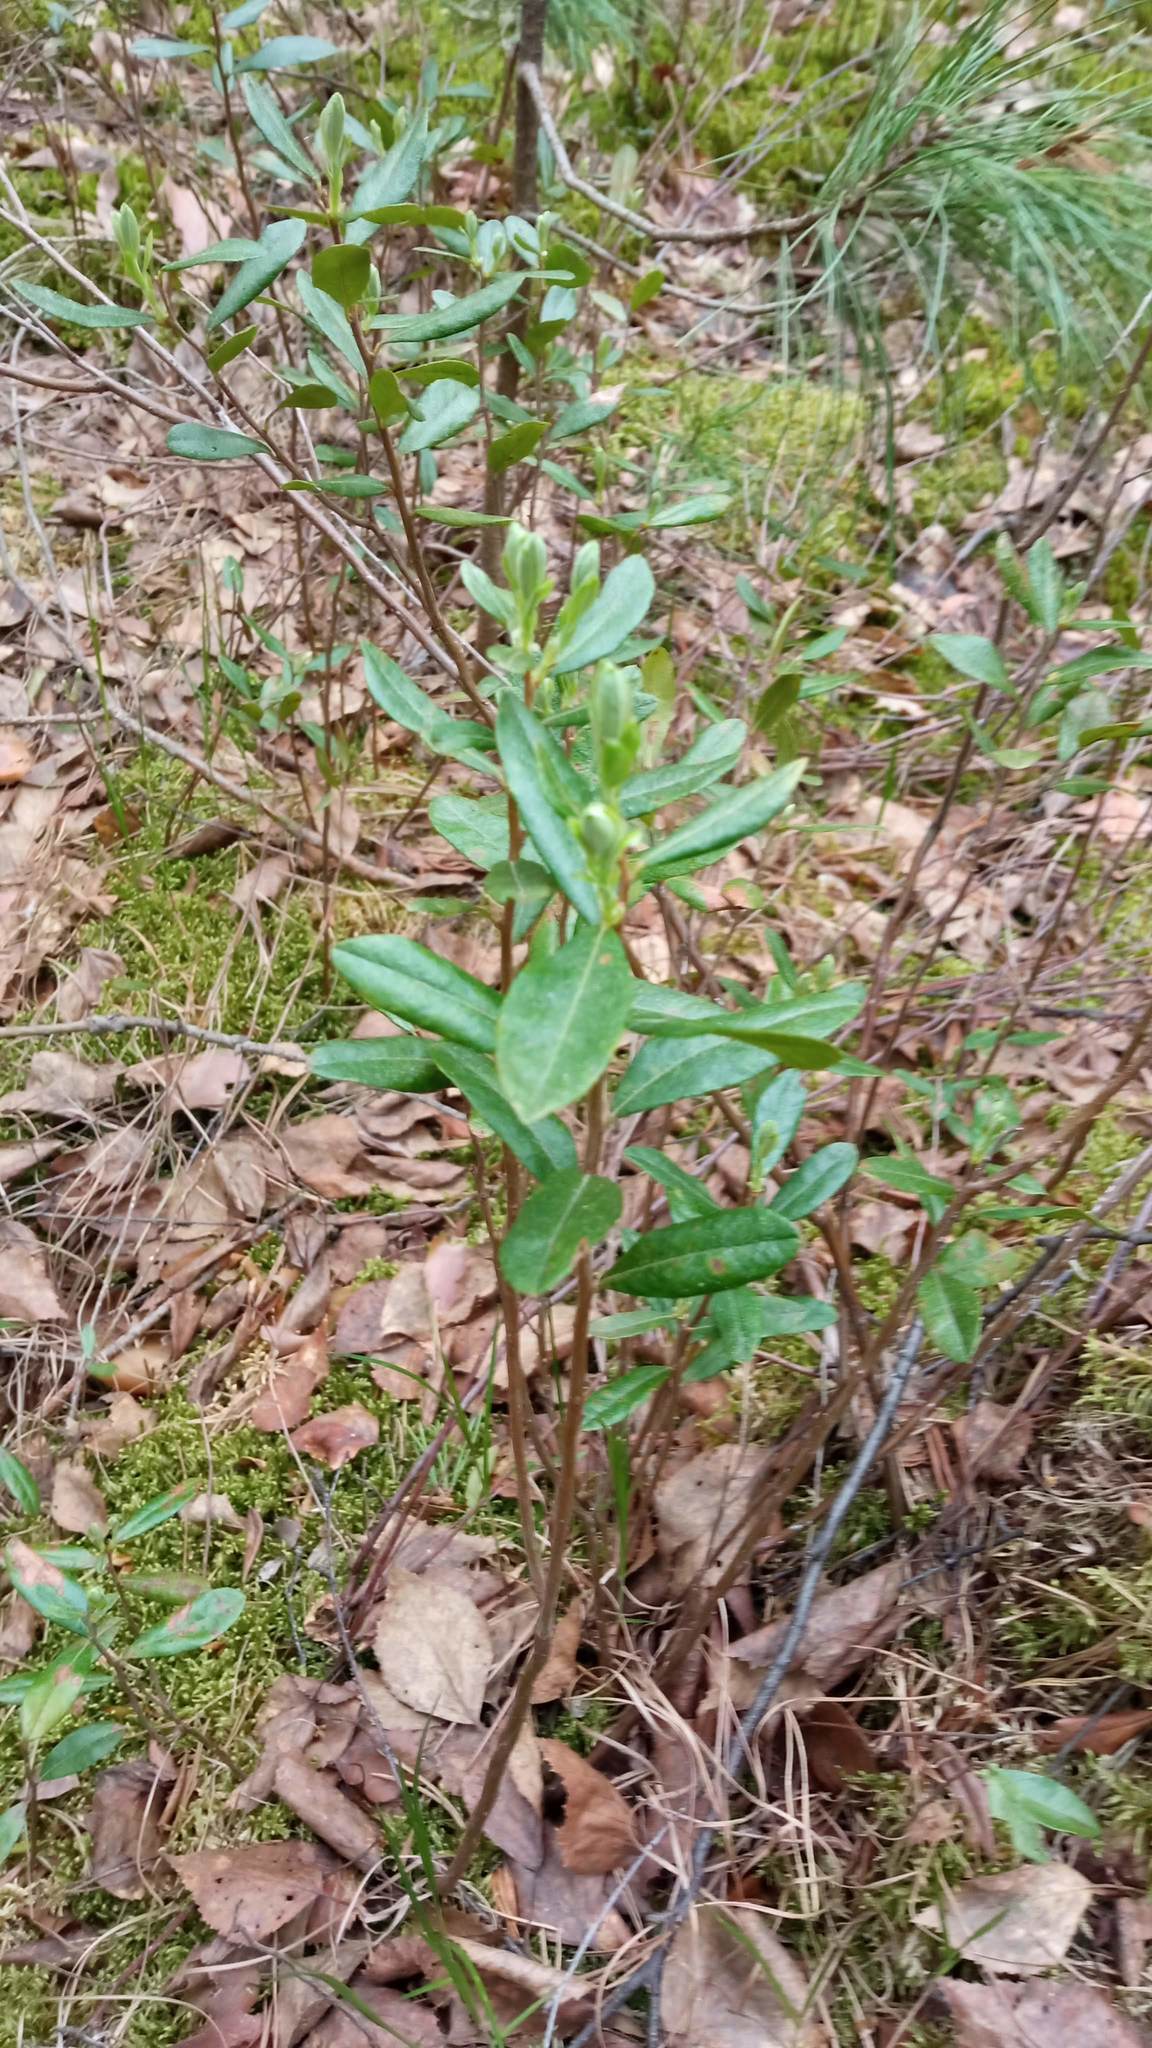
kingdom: Plantae
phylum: Tracheophyta
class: Magnoliopsida
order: Ericales
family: Ericaceae
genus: Chamaedaphne
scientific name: Chamaedaphne calyculata
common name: Leatherleaf
